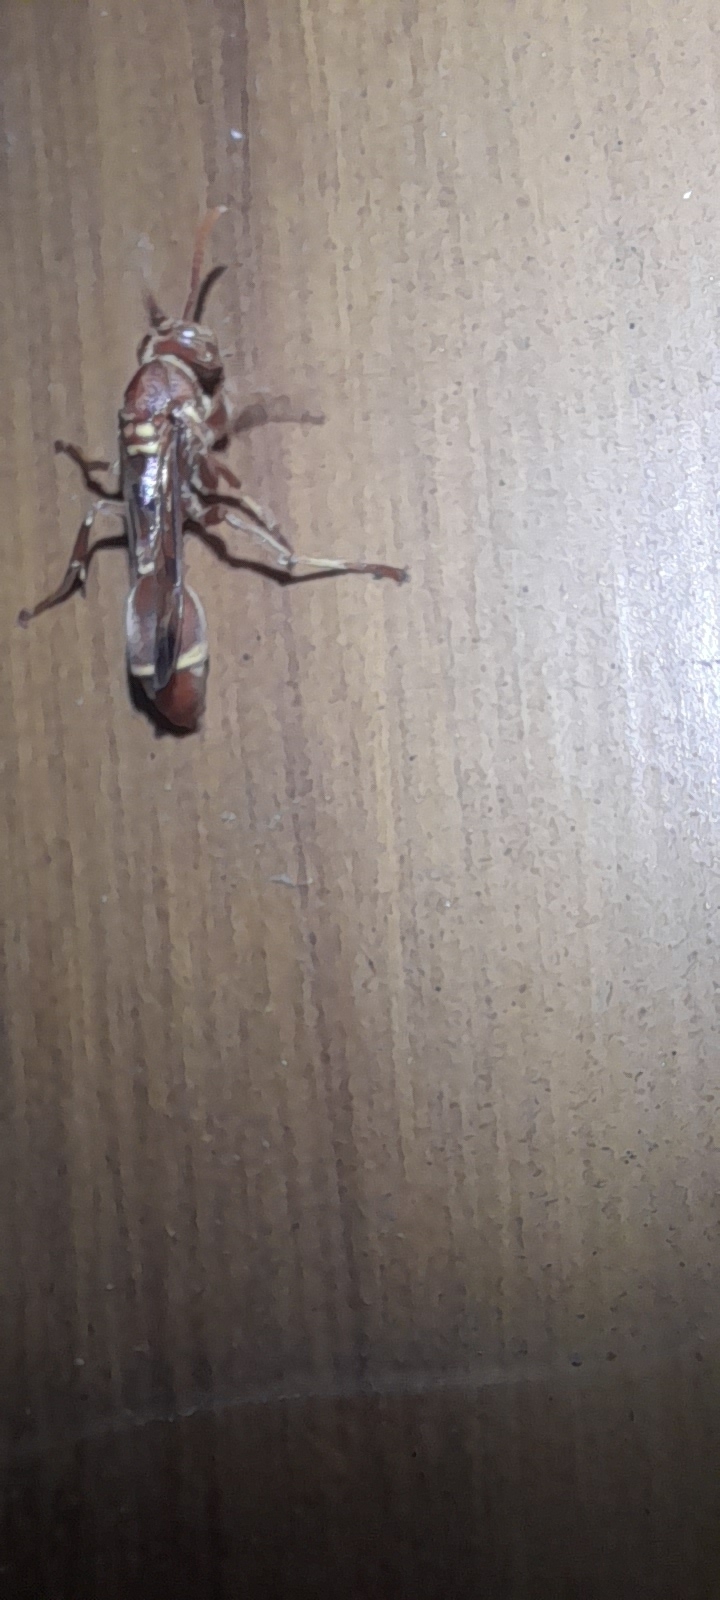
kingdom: Animalia
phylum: Arthropoda
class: Insecta
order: Hymenoptera
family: Vespidae
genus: Ropalidia
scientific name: Ropalidia marginata
